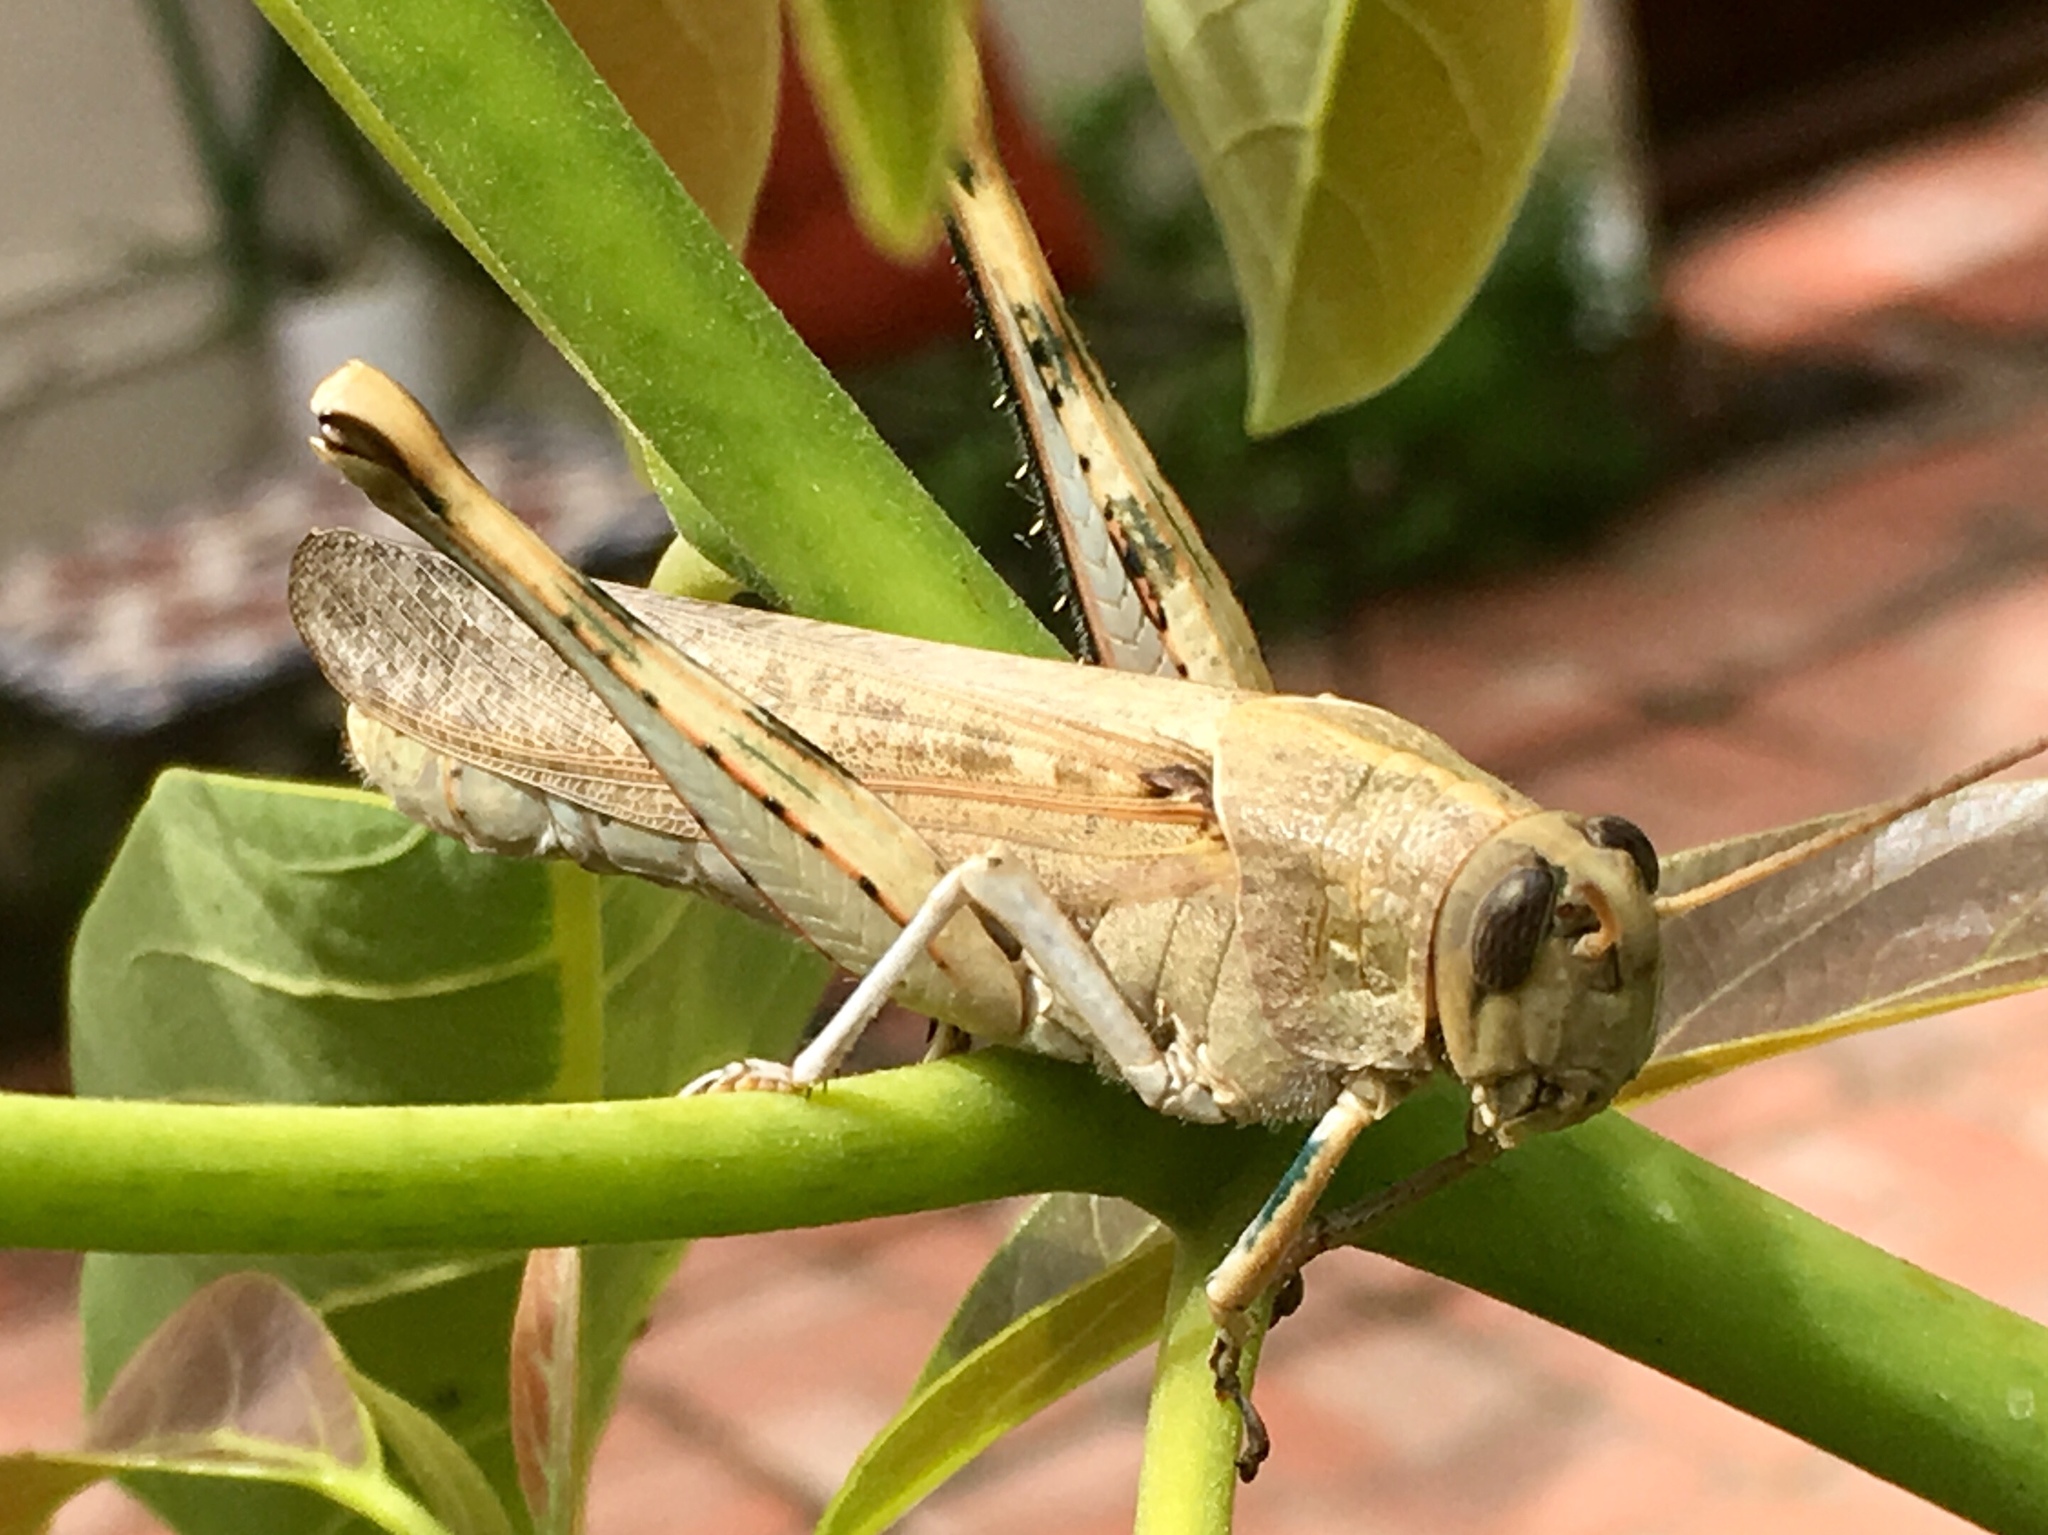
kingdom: Animalia
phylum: Arthropoda
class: Insecta
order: Orthoptera
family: Acrididae
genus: Schistocerca
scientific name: Schistocerca nitens
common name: Vagrant grasshopper
